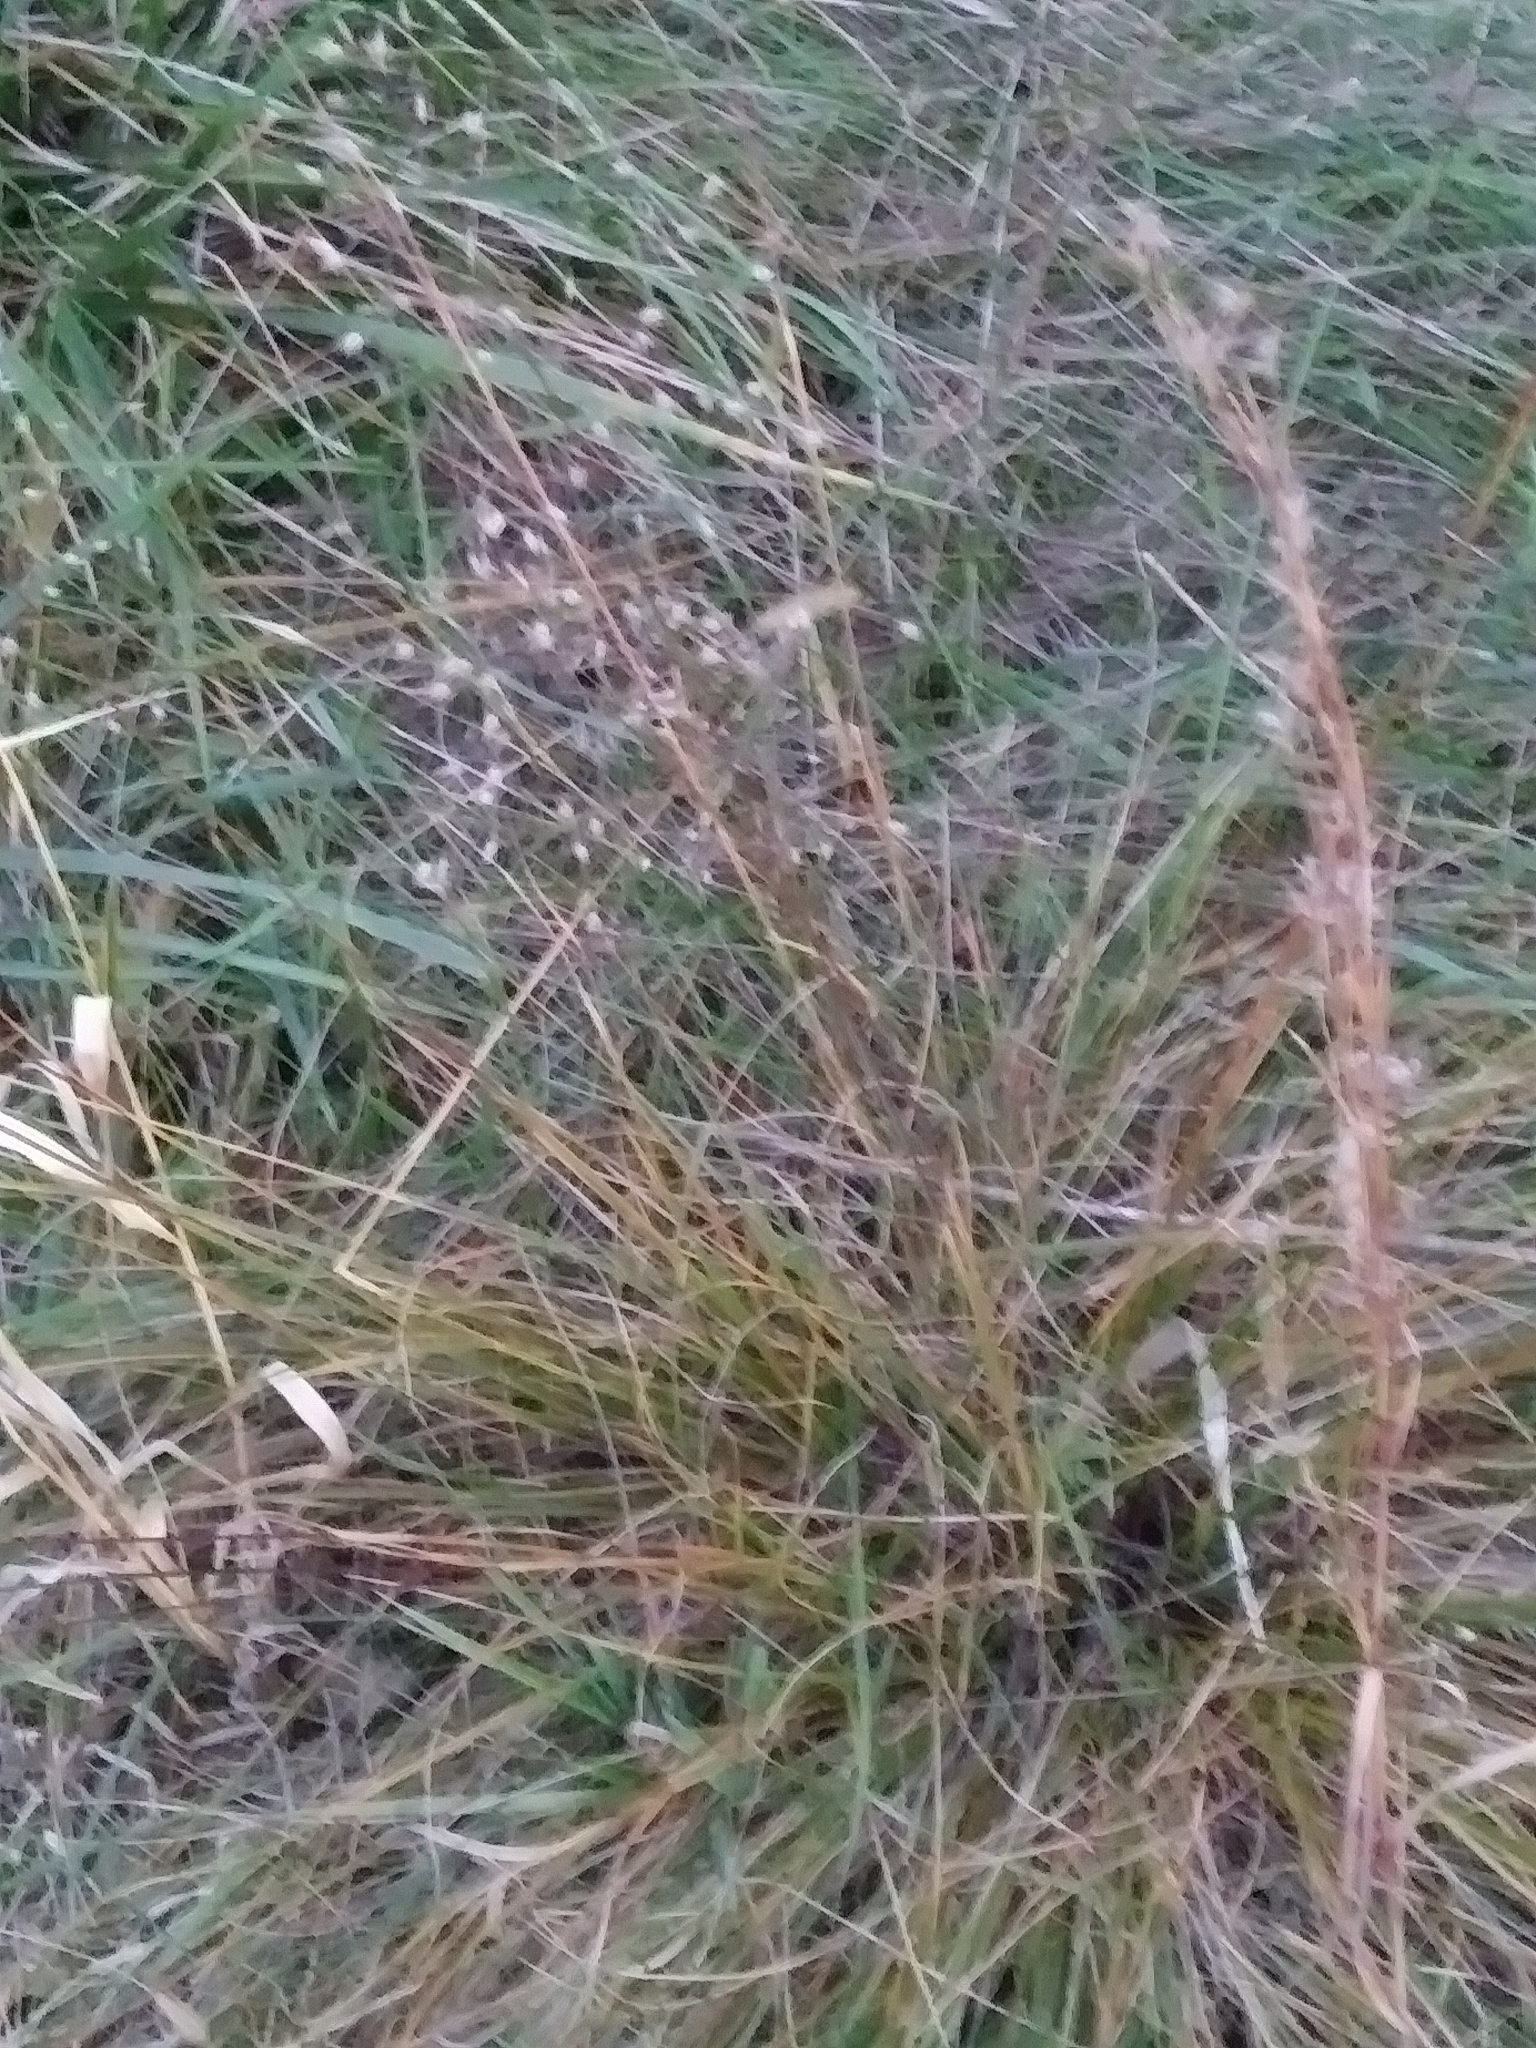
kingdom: Plantae
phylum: Tracheophyta
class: Liliopsida
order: Poales
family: Poaceae
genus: Sporobolus
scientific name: Sporobolus heterolepis
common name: Prairie dropseed
